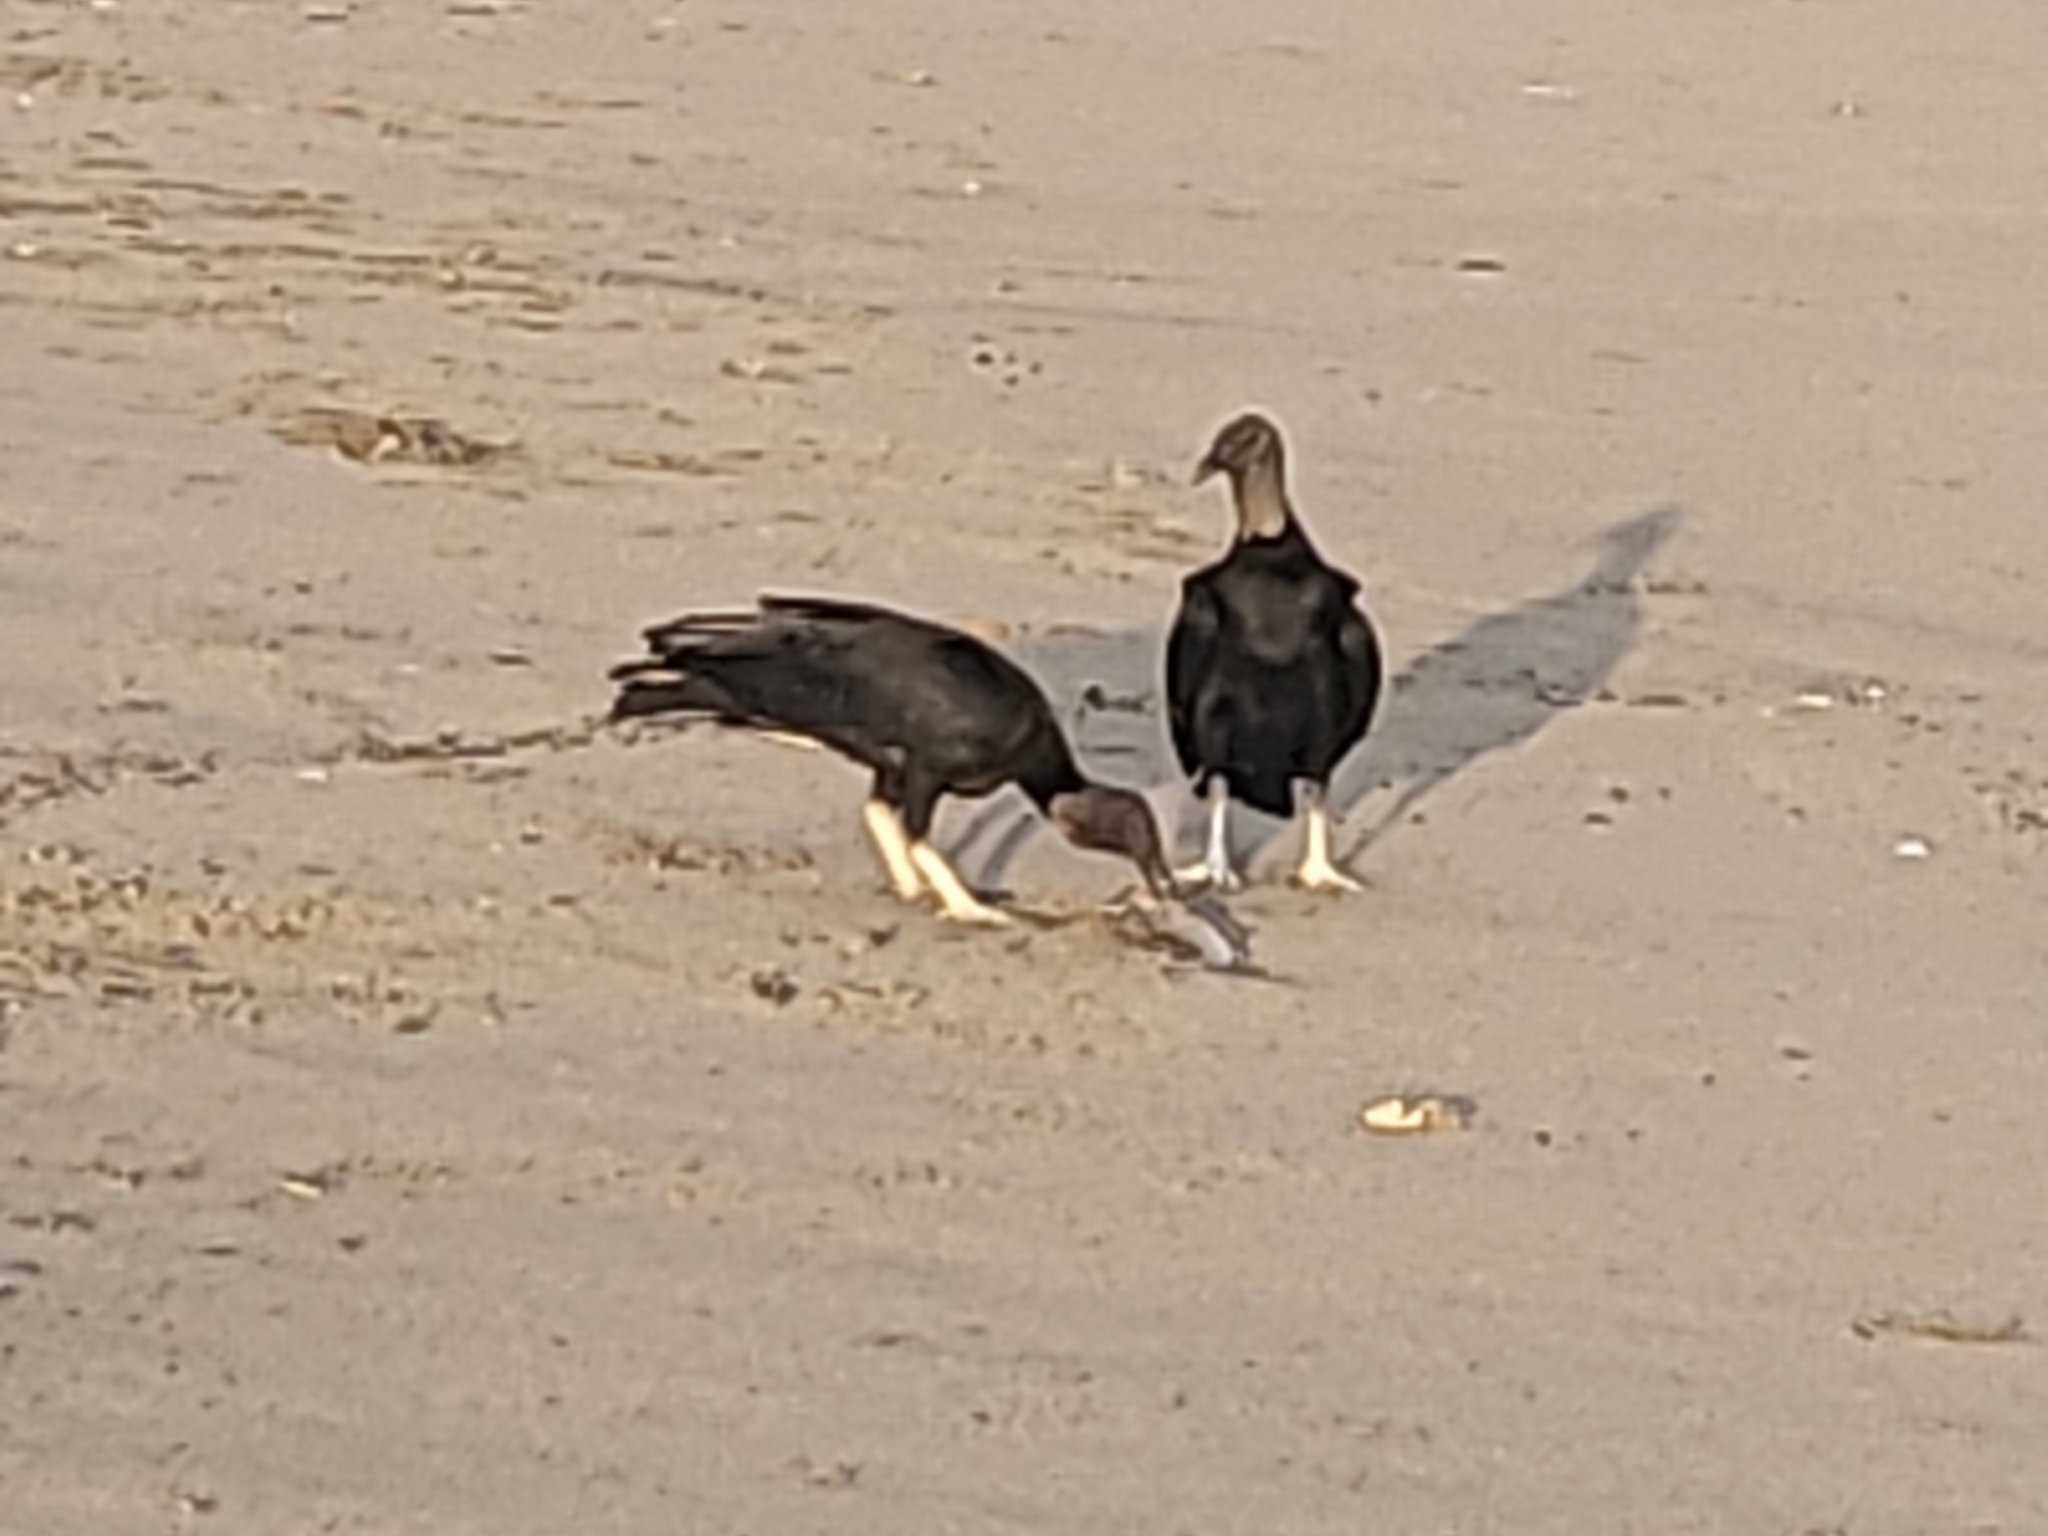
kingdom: Animalia
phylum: Chordata
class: Aves
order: Accipitriformes
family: Cathartidae
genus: Coragyps
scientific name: Coragyps atratus
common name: Black vulture
